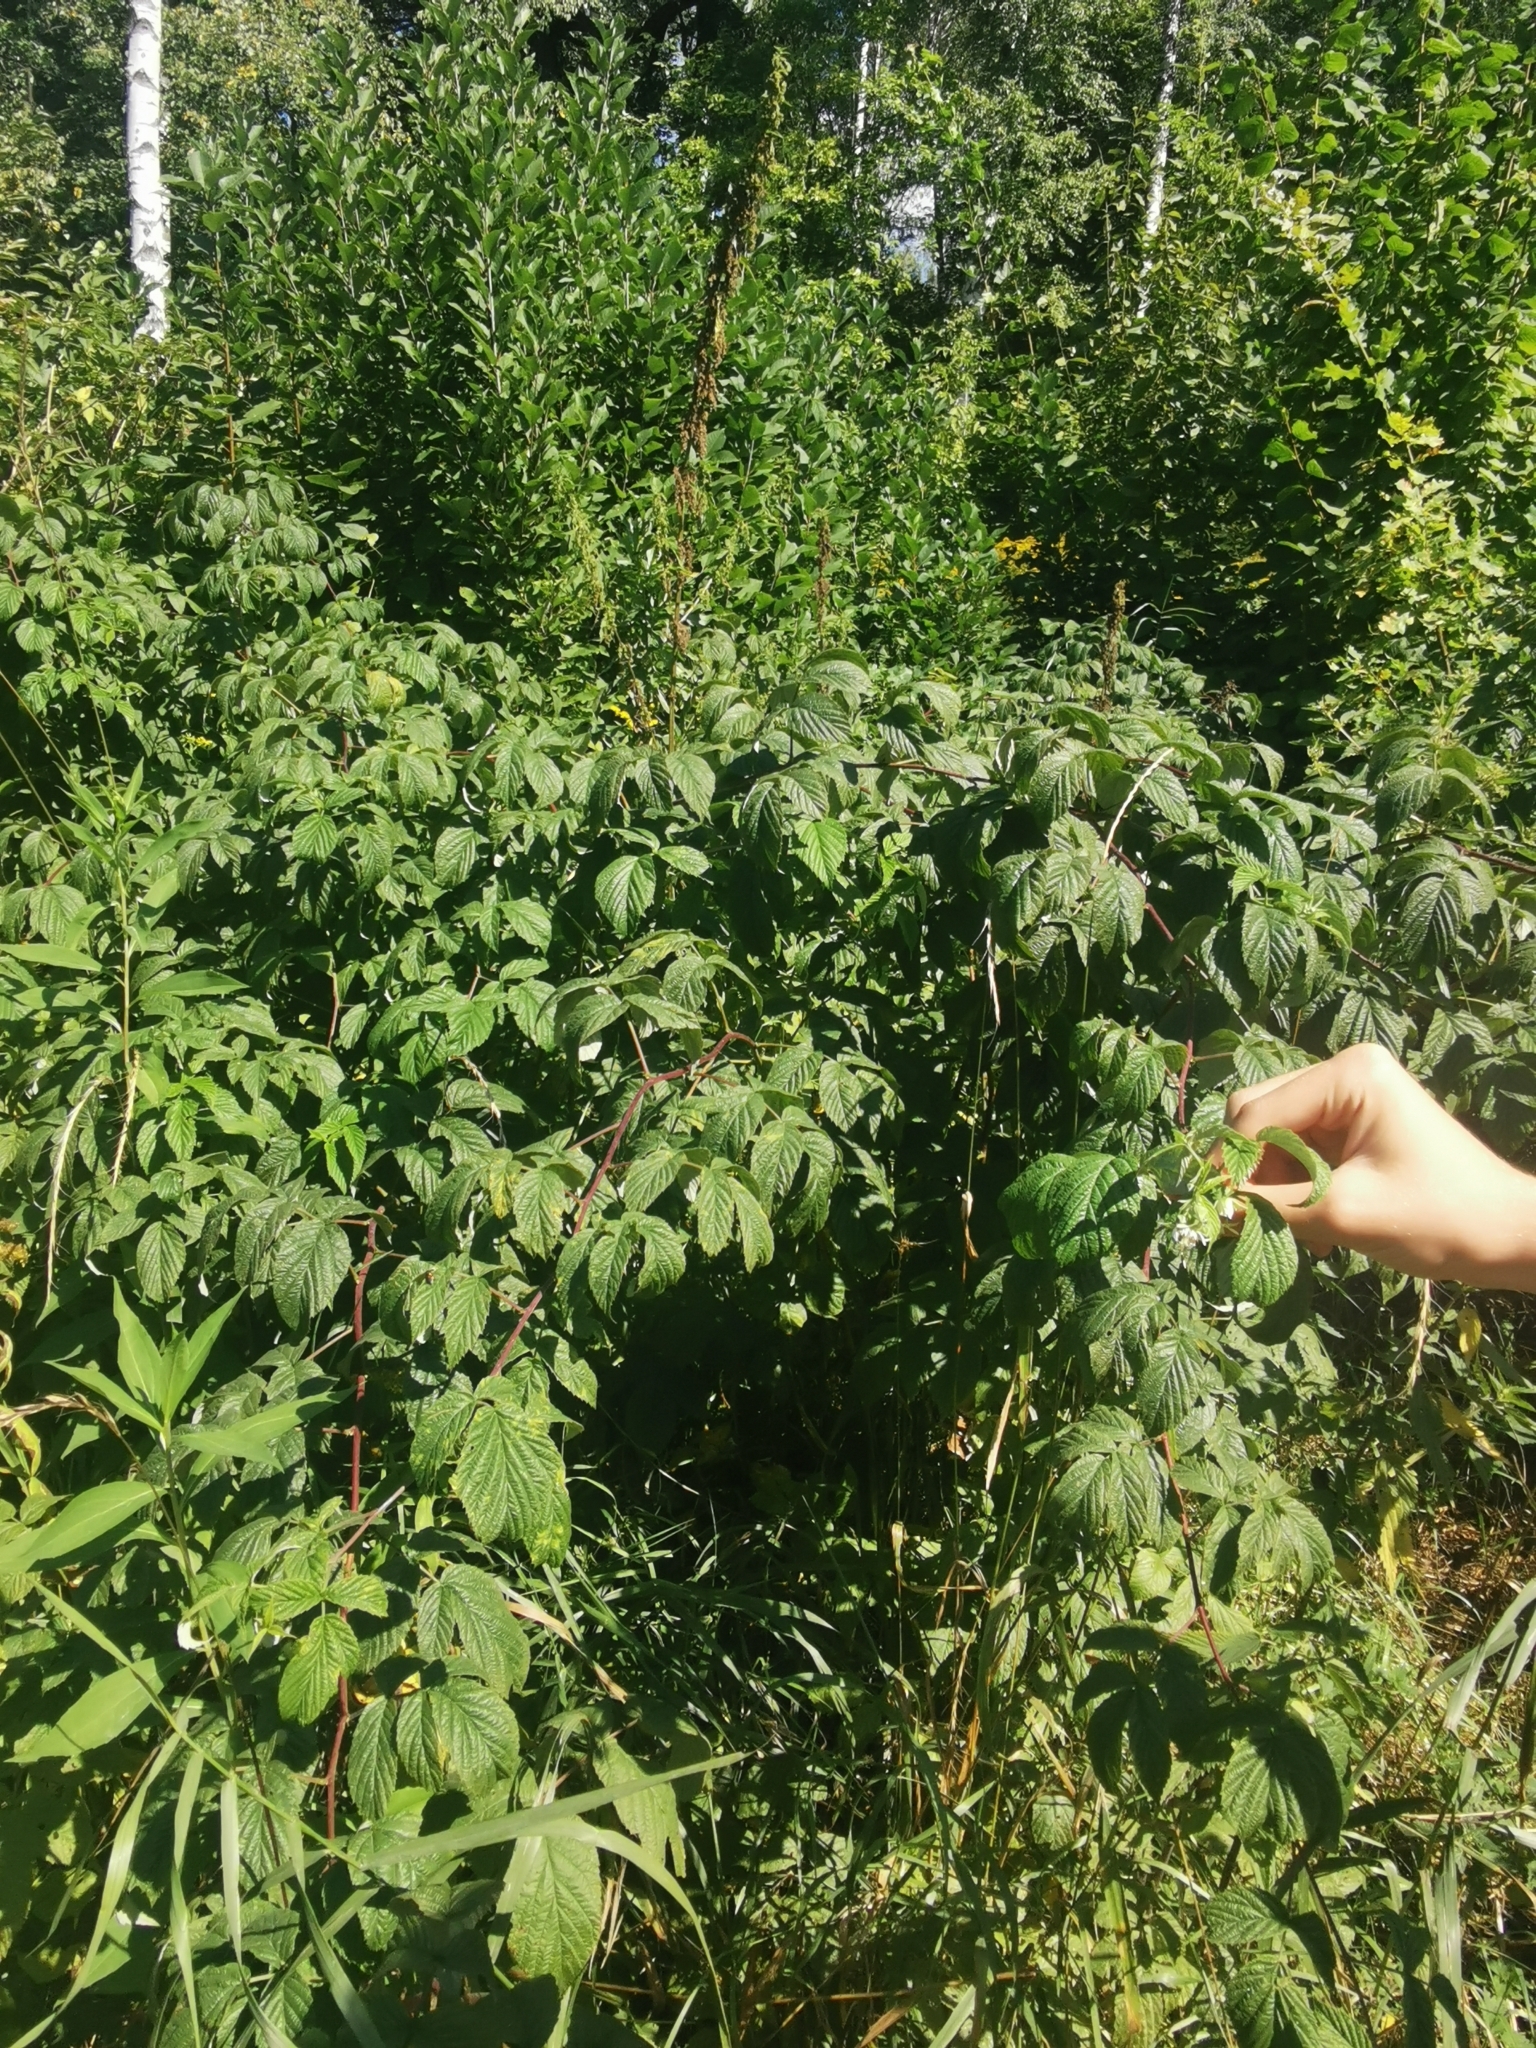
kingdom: Plantae
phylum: Tracheophyta
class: Magnoliopsida
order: Rosales
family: Rosaceae
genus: Rubus
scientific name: Rubus idaeus
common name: Raspberry
